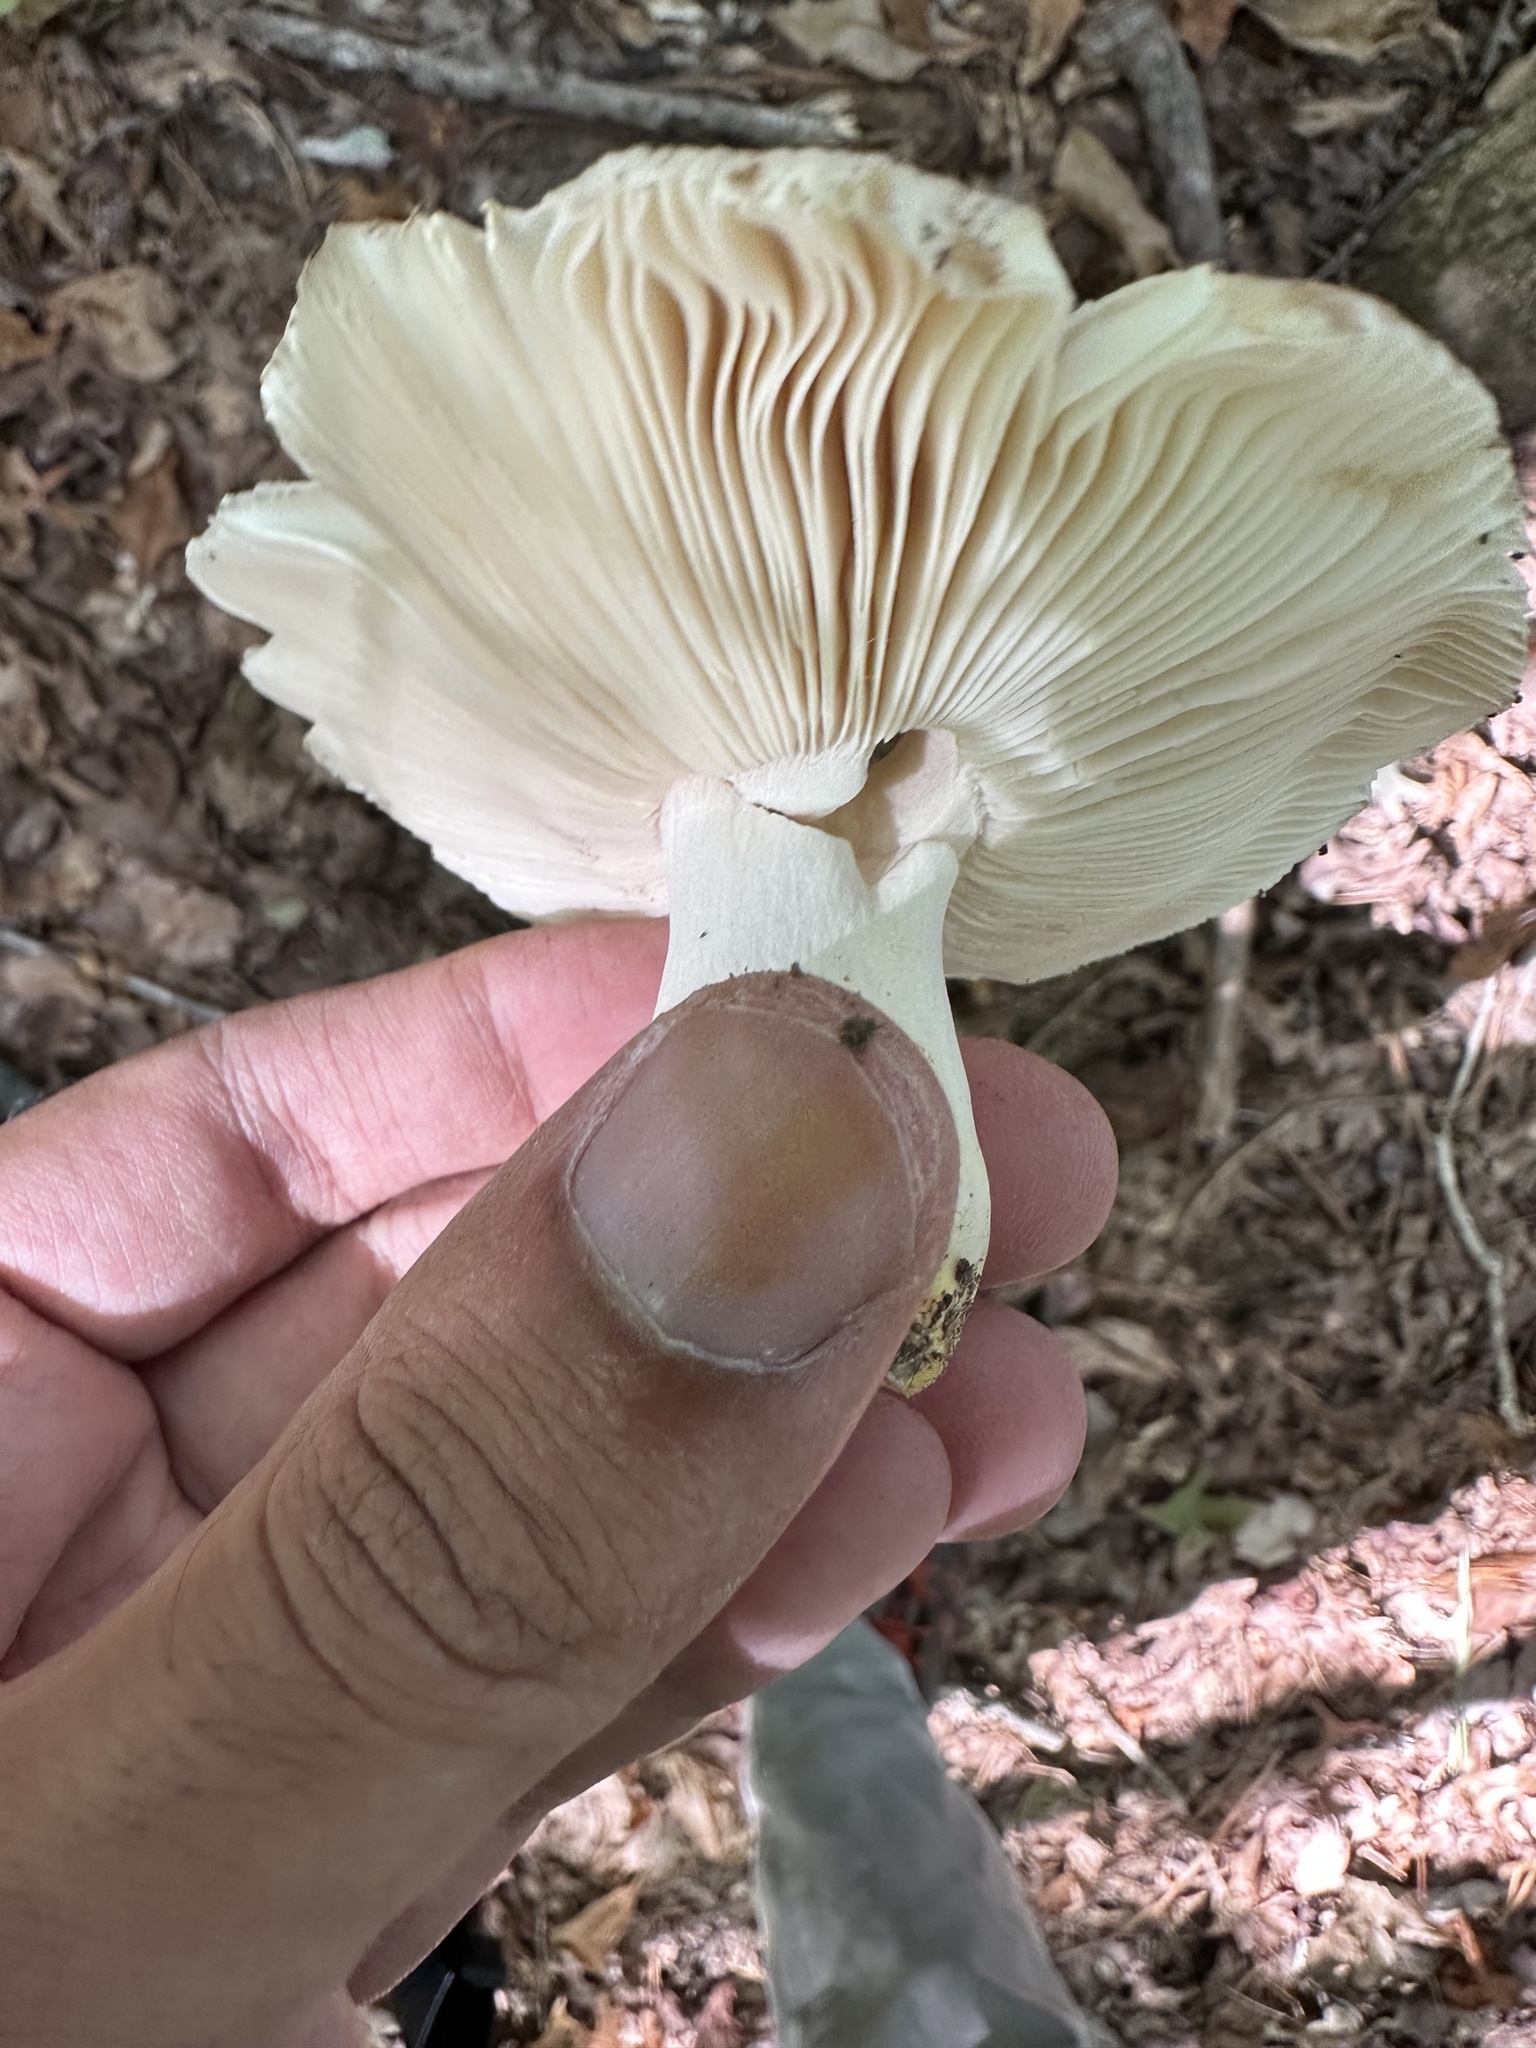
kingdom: Fungi
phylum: Basidiomycota
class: Agaricomycetes
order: Russulales
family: Russulaceae
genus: Russula
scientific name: Russula crustosa
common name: Green quilt russula
